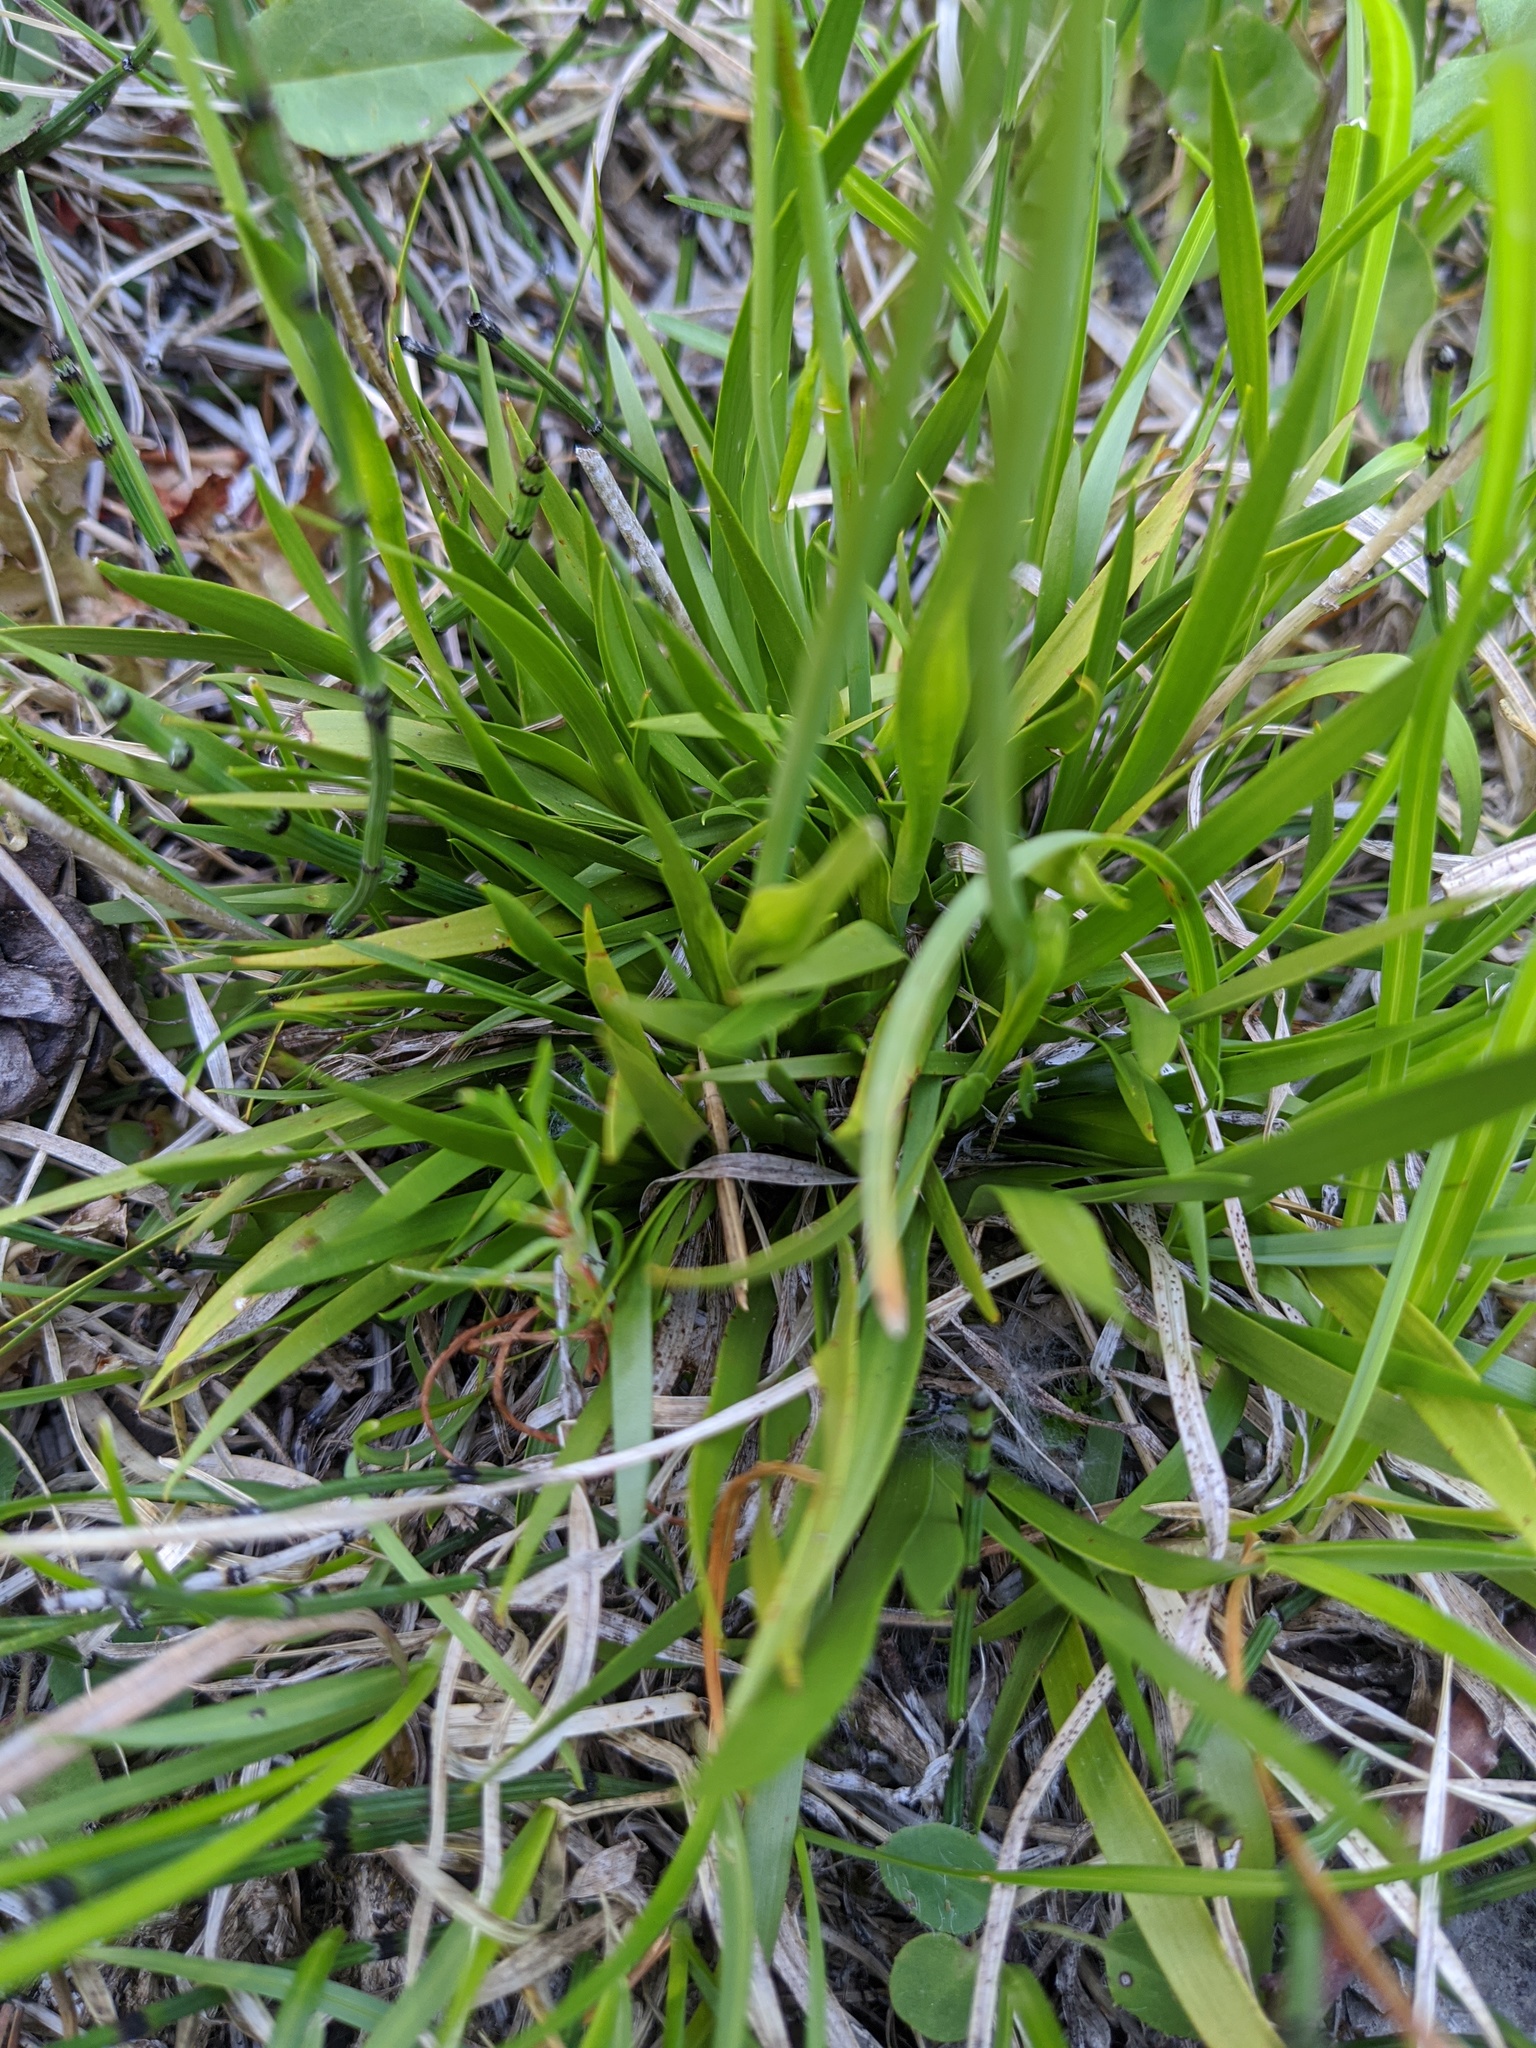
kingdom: Plantae
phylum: Tracheophyta
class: Liliopsida
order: Alismatales
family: Tofieldiaceae
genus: Tofieldia
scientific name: Tofieldia calyculata
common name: German-asphodel
